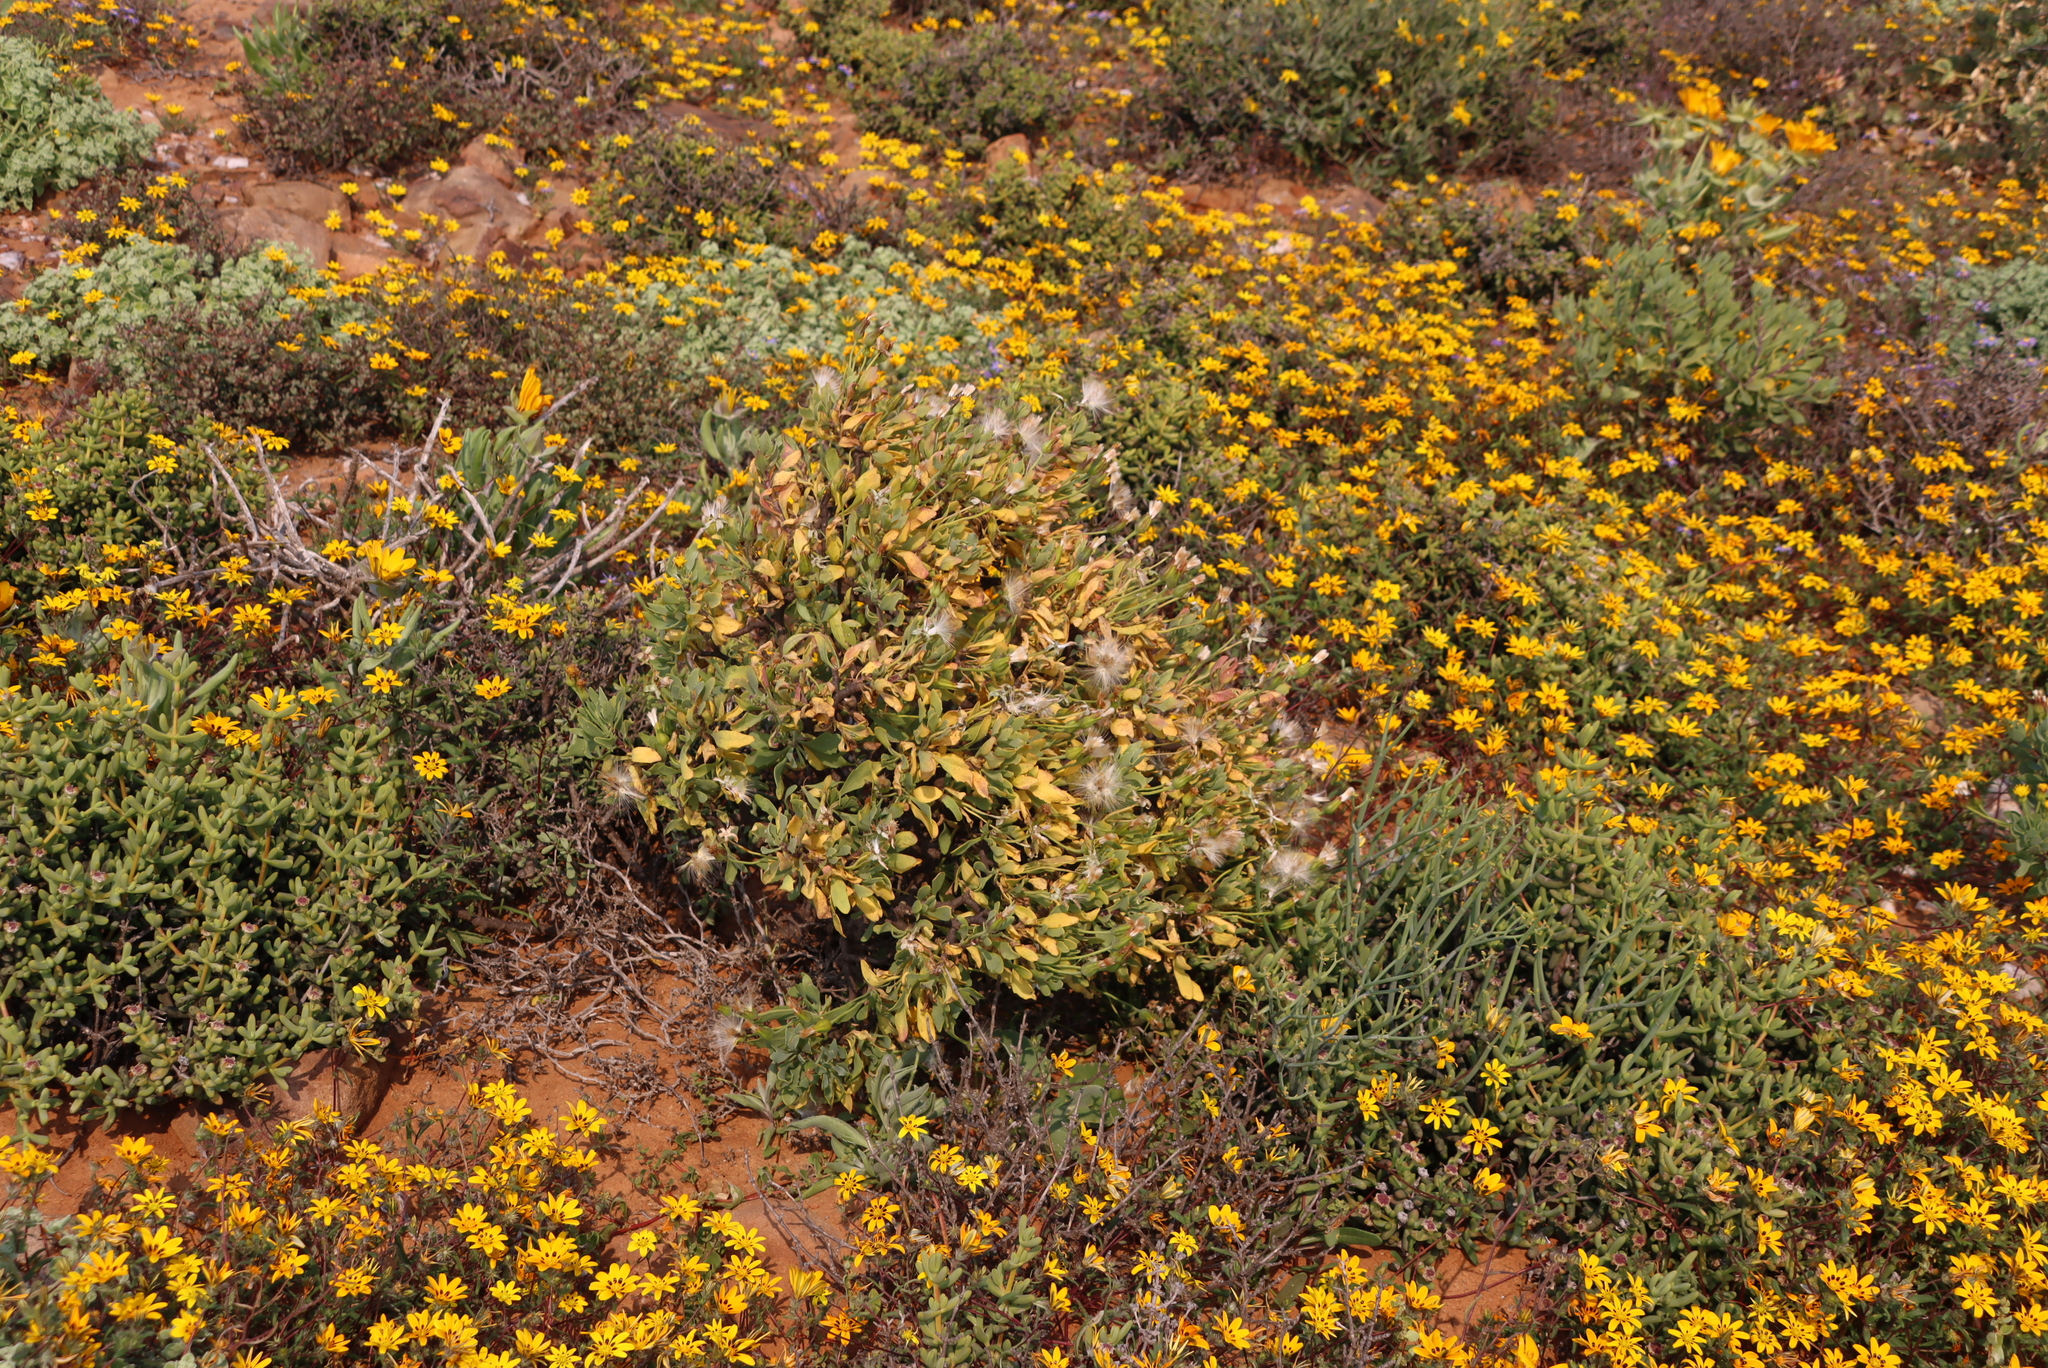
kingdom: Plantae
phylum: Tracheophyta
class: Magnoliopsida
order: Asterales
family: Asteraceae
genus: Othonna
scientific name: Othonna lasiocarpa
